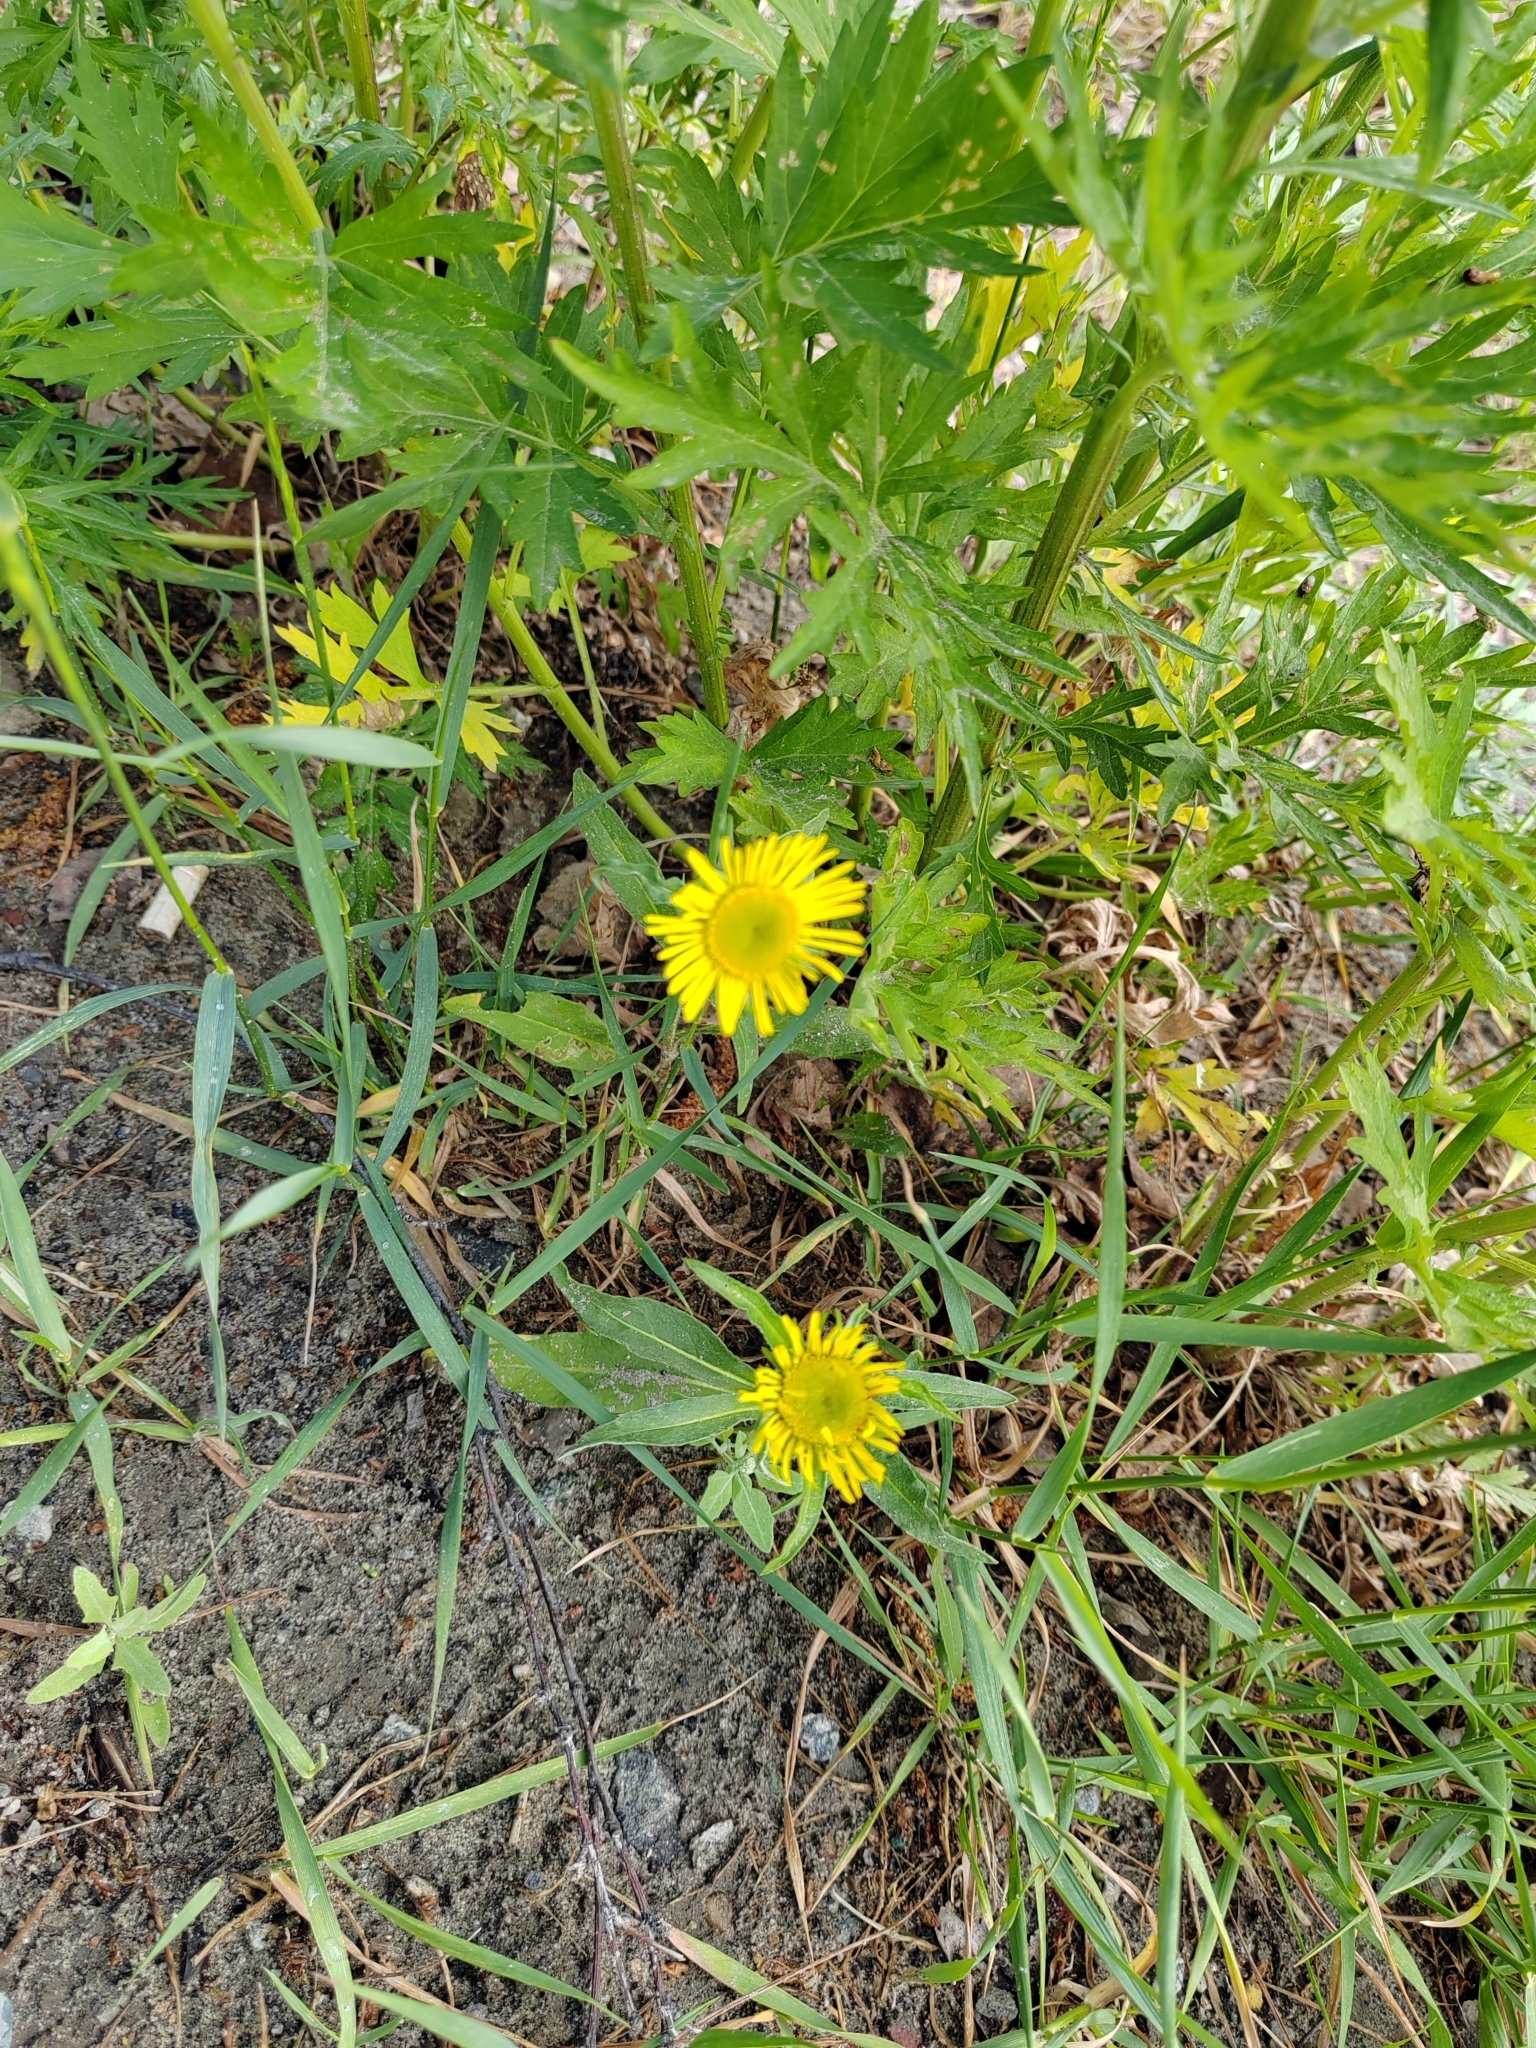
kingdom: Plantae
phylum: Tracheophyta
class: Magnoliopsida
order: Asterales
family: Asteraceae
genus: Pentanema
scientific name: Pentanema britannicum
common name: British elecampane
